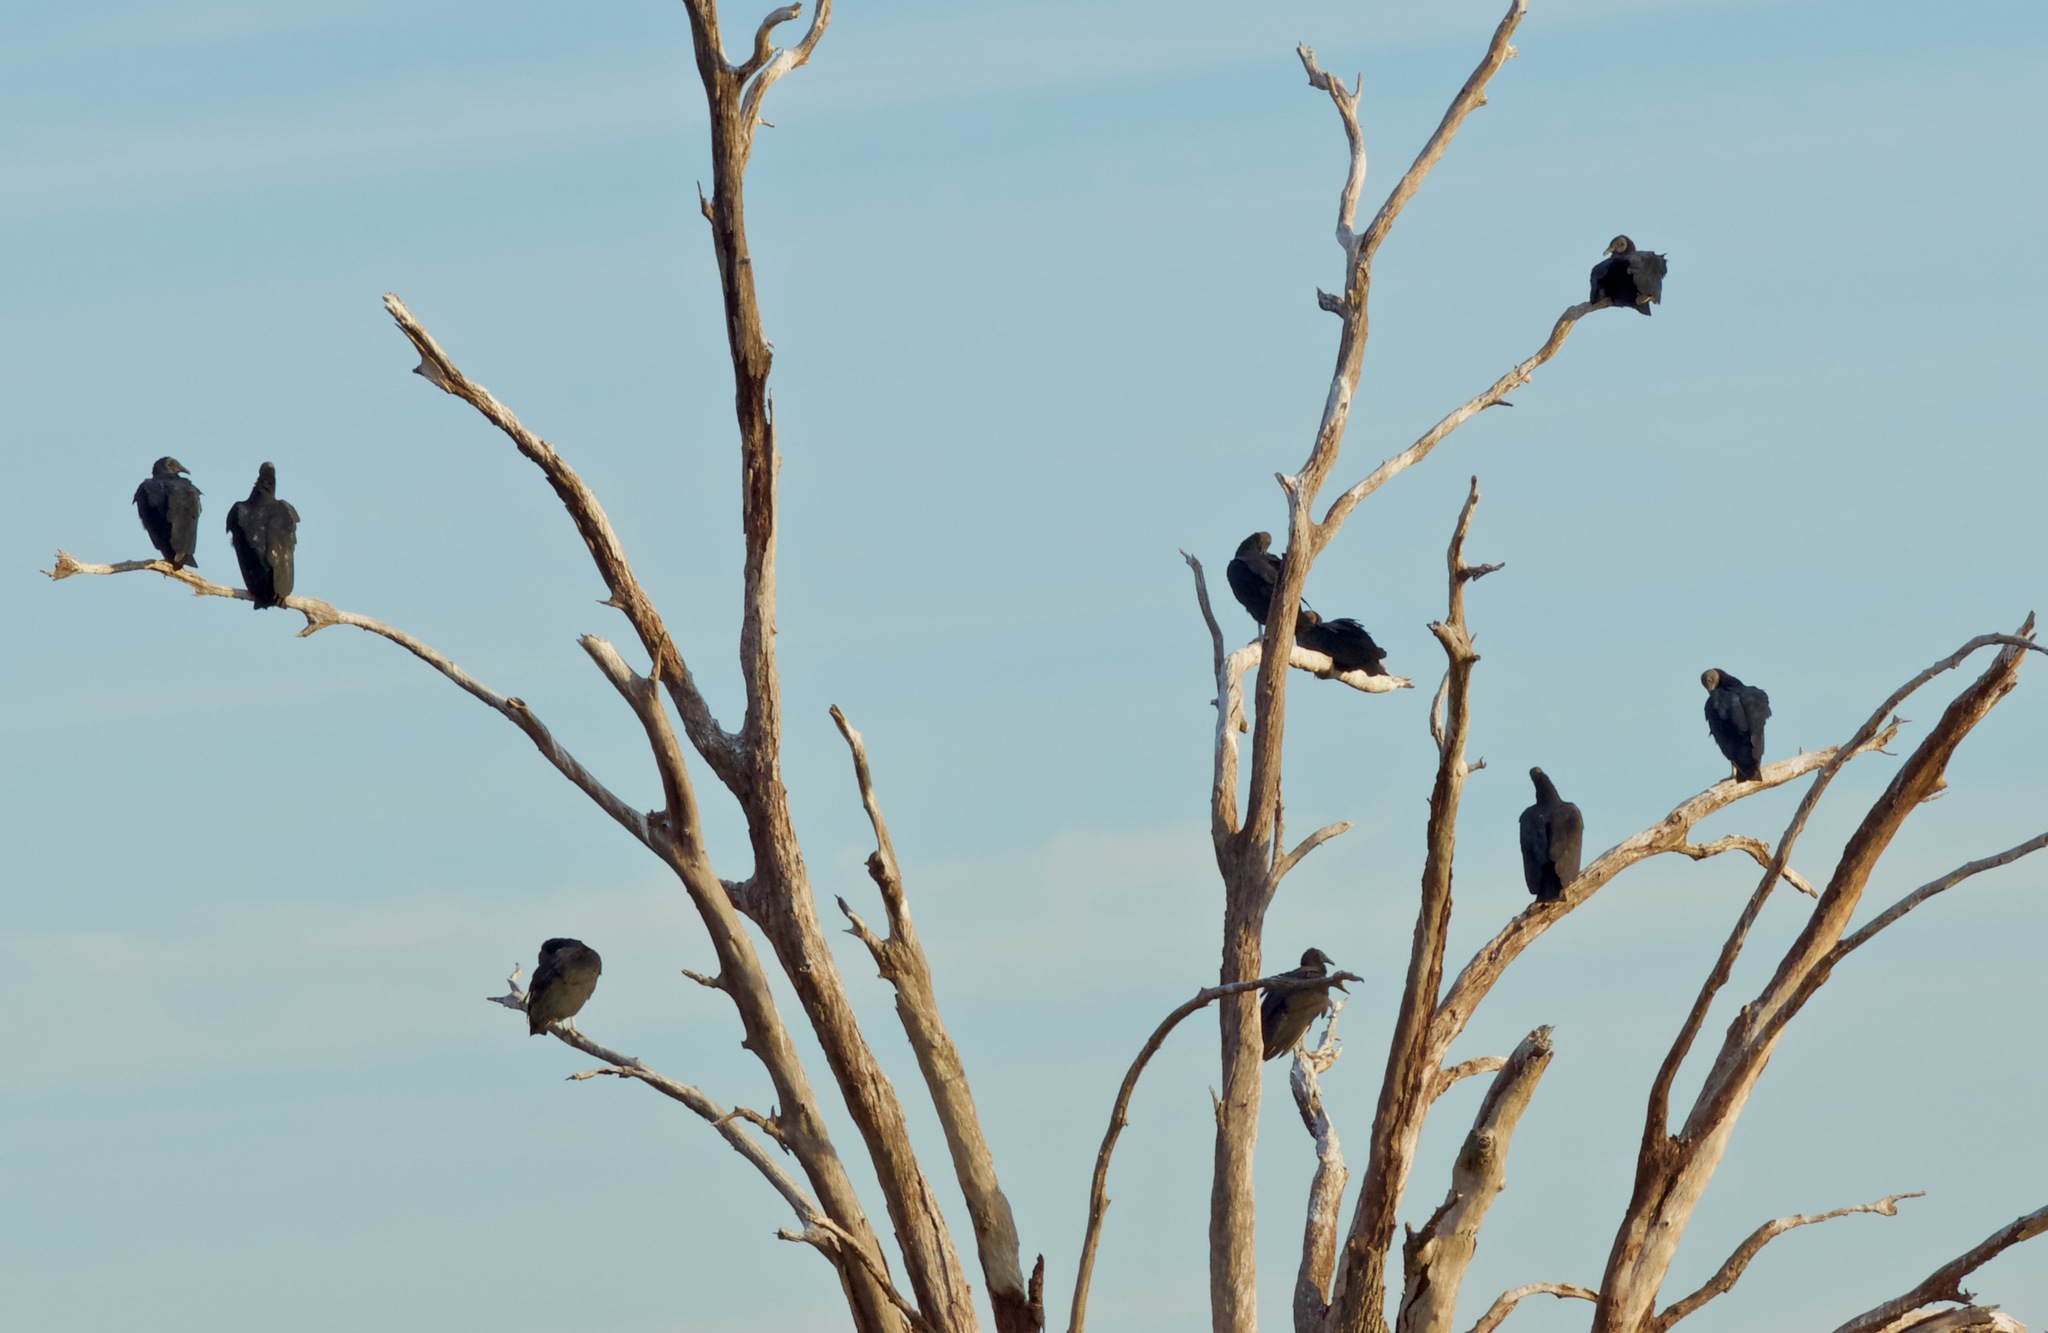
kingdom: Animalia
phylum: Chordata
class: Aves
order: Accipitriformes
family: Cathartidae
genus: Coragyps
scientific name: Coragyps atratus
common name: Black vulture
